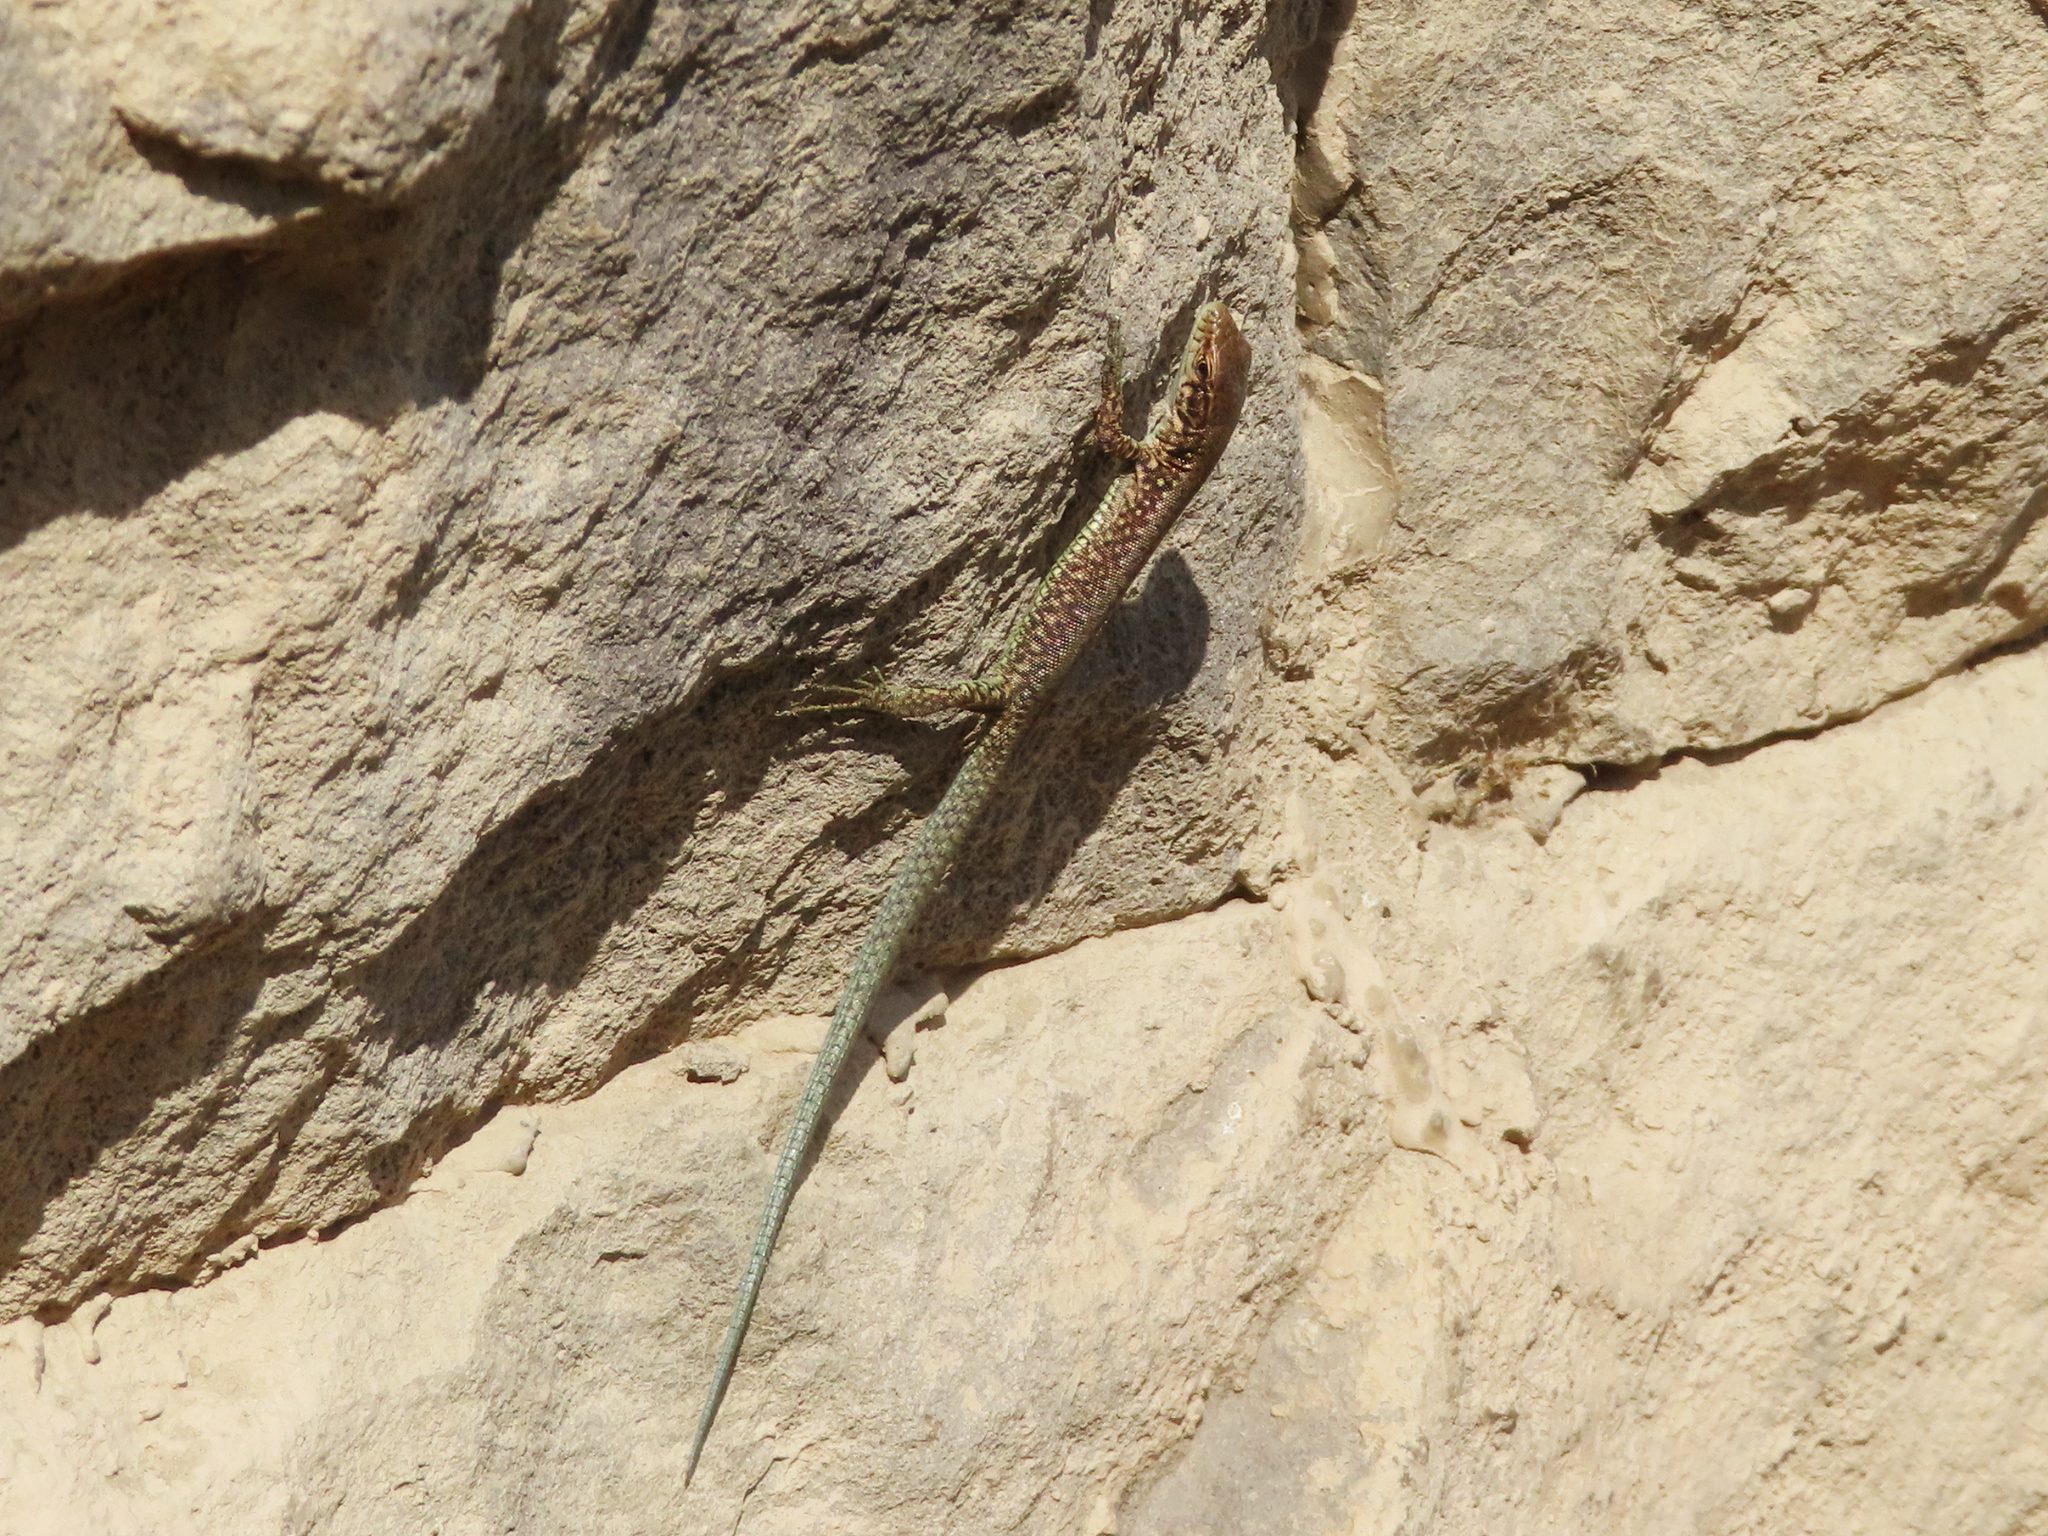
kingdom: Animalia
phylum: Chordata
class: Squamata
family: Lacertidae
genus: Darevskia
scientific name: Darevskia armeniaca
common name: Armenian lizard
